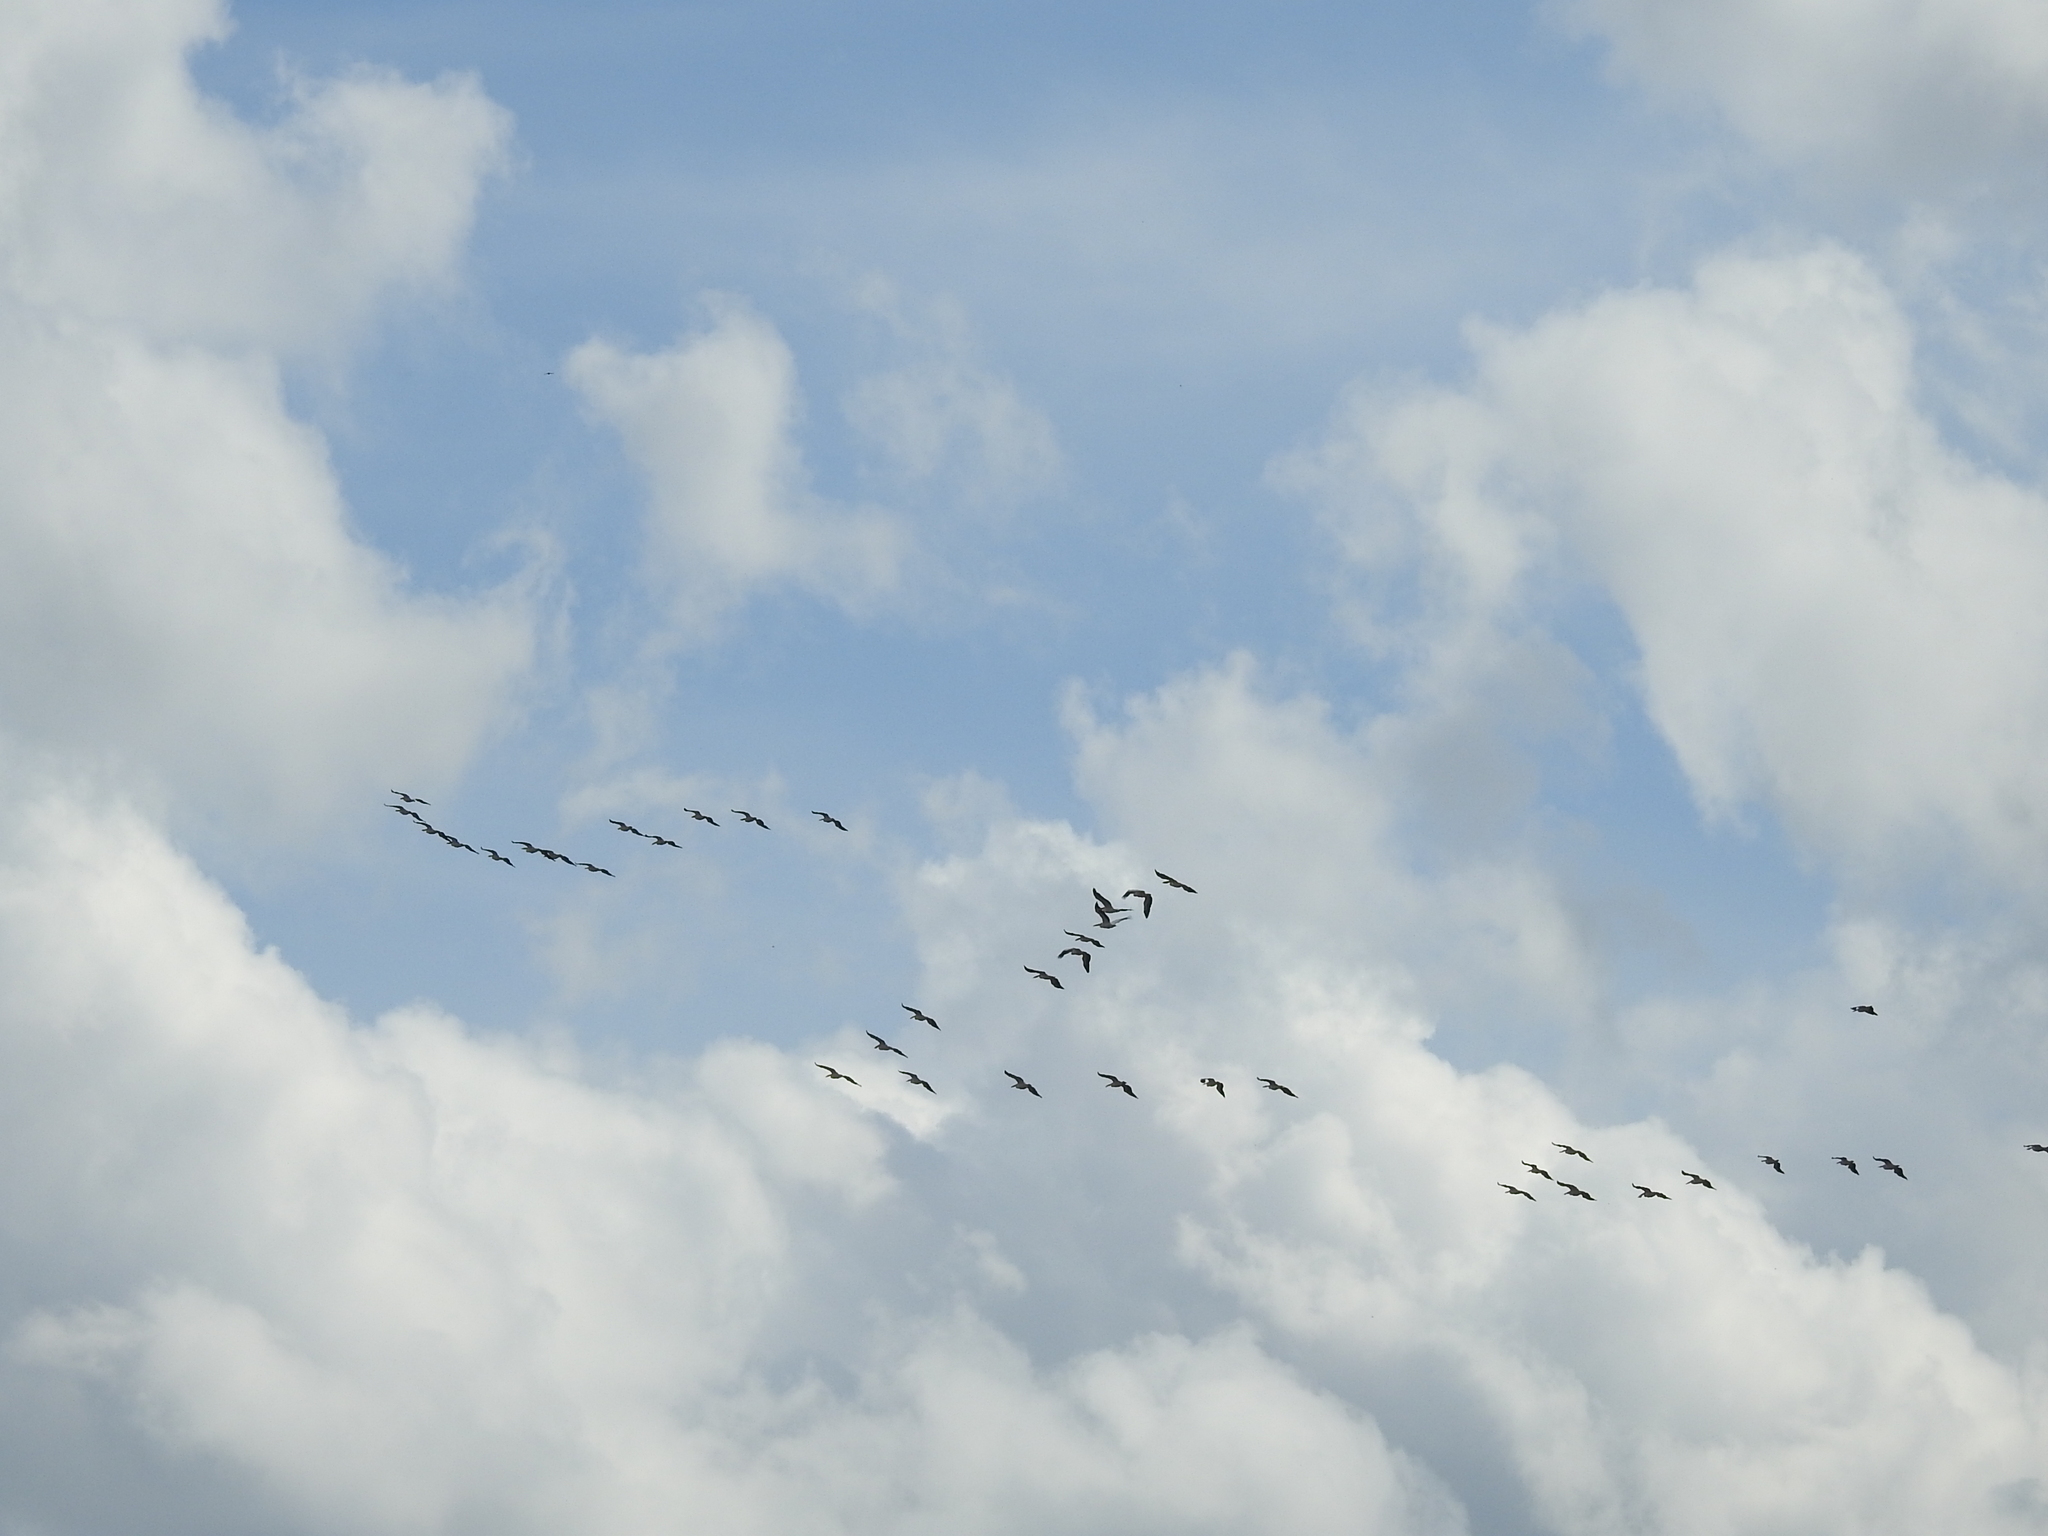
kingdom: Animalia
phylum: Chordata
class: Aves
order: Pelecaniformes
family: Pelecanidae
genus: Pelecanus
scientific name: Pelecanus onocrotalus
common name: Great white pelican
